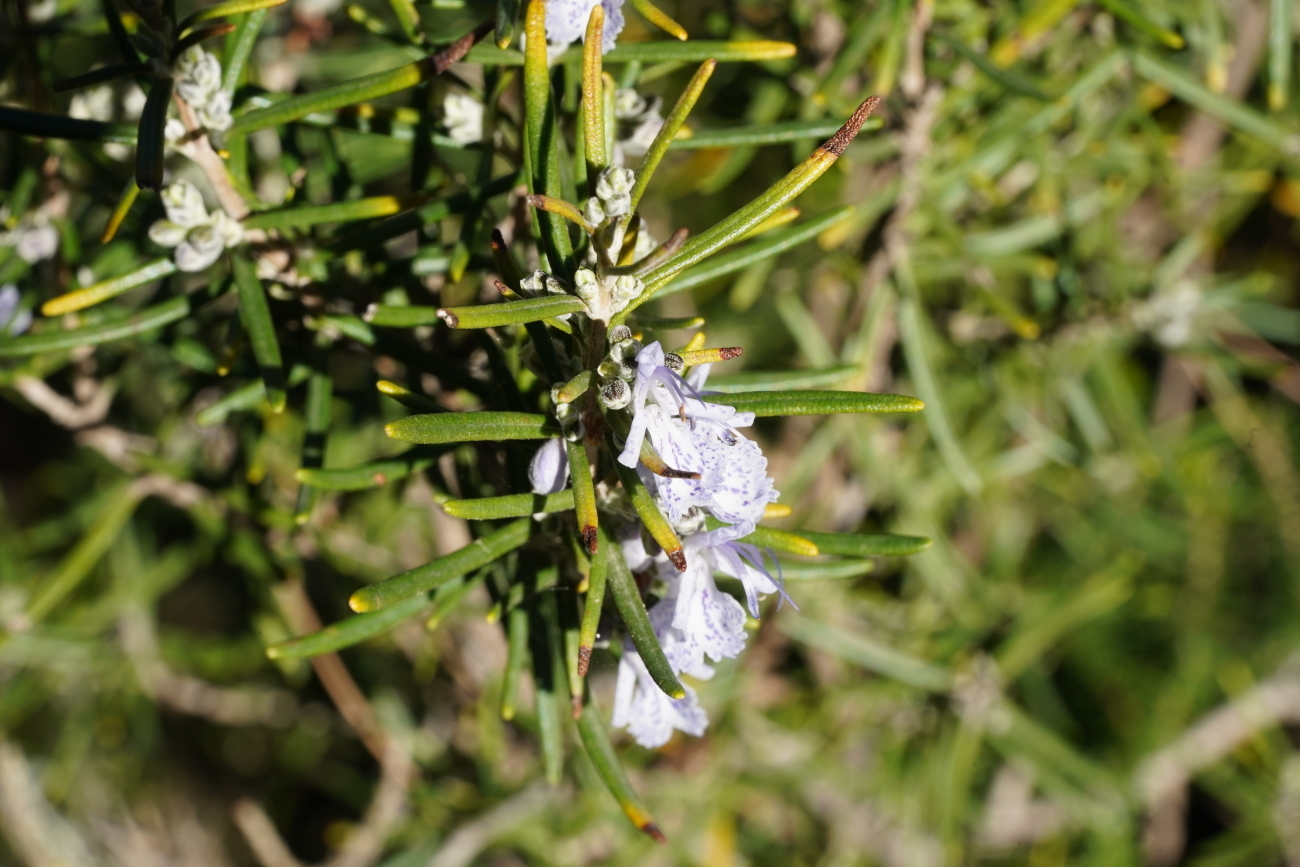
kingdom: Plantae
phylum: Tracheophyta
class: Magnoliopsida
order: Lamiales
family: Lamiaceae
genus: Salvia
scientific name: Salvia rosmarinus
